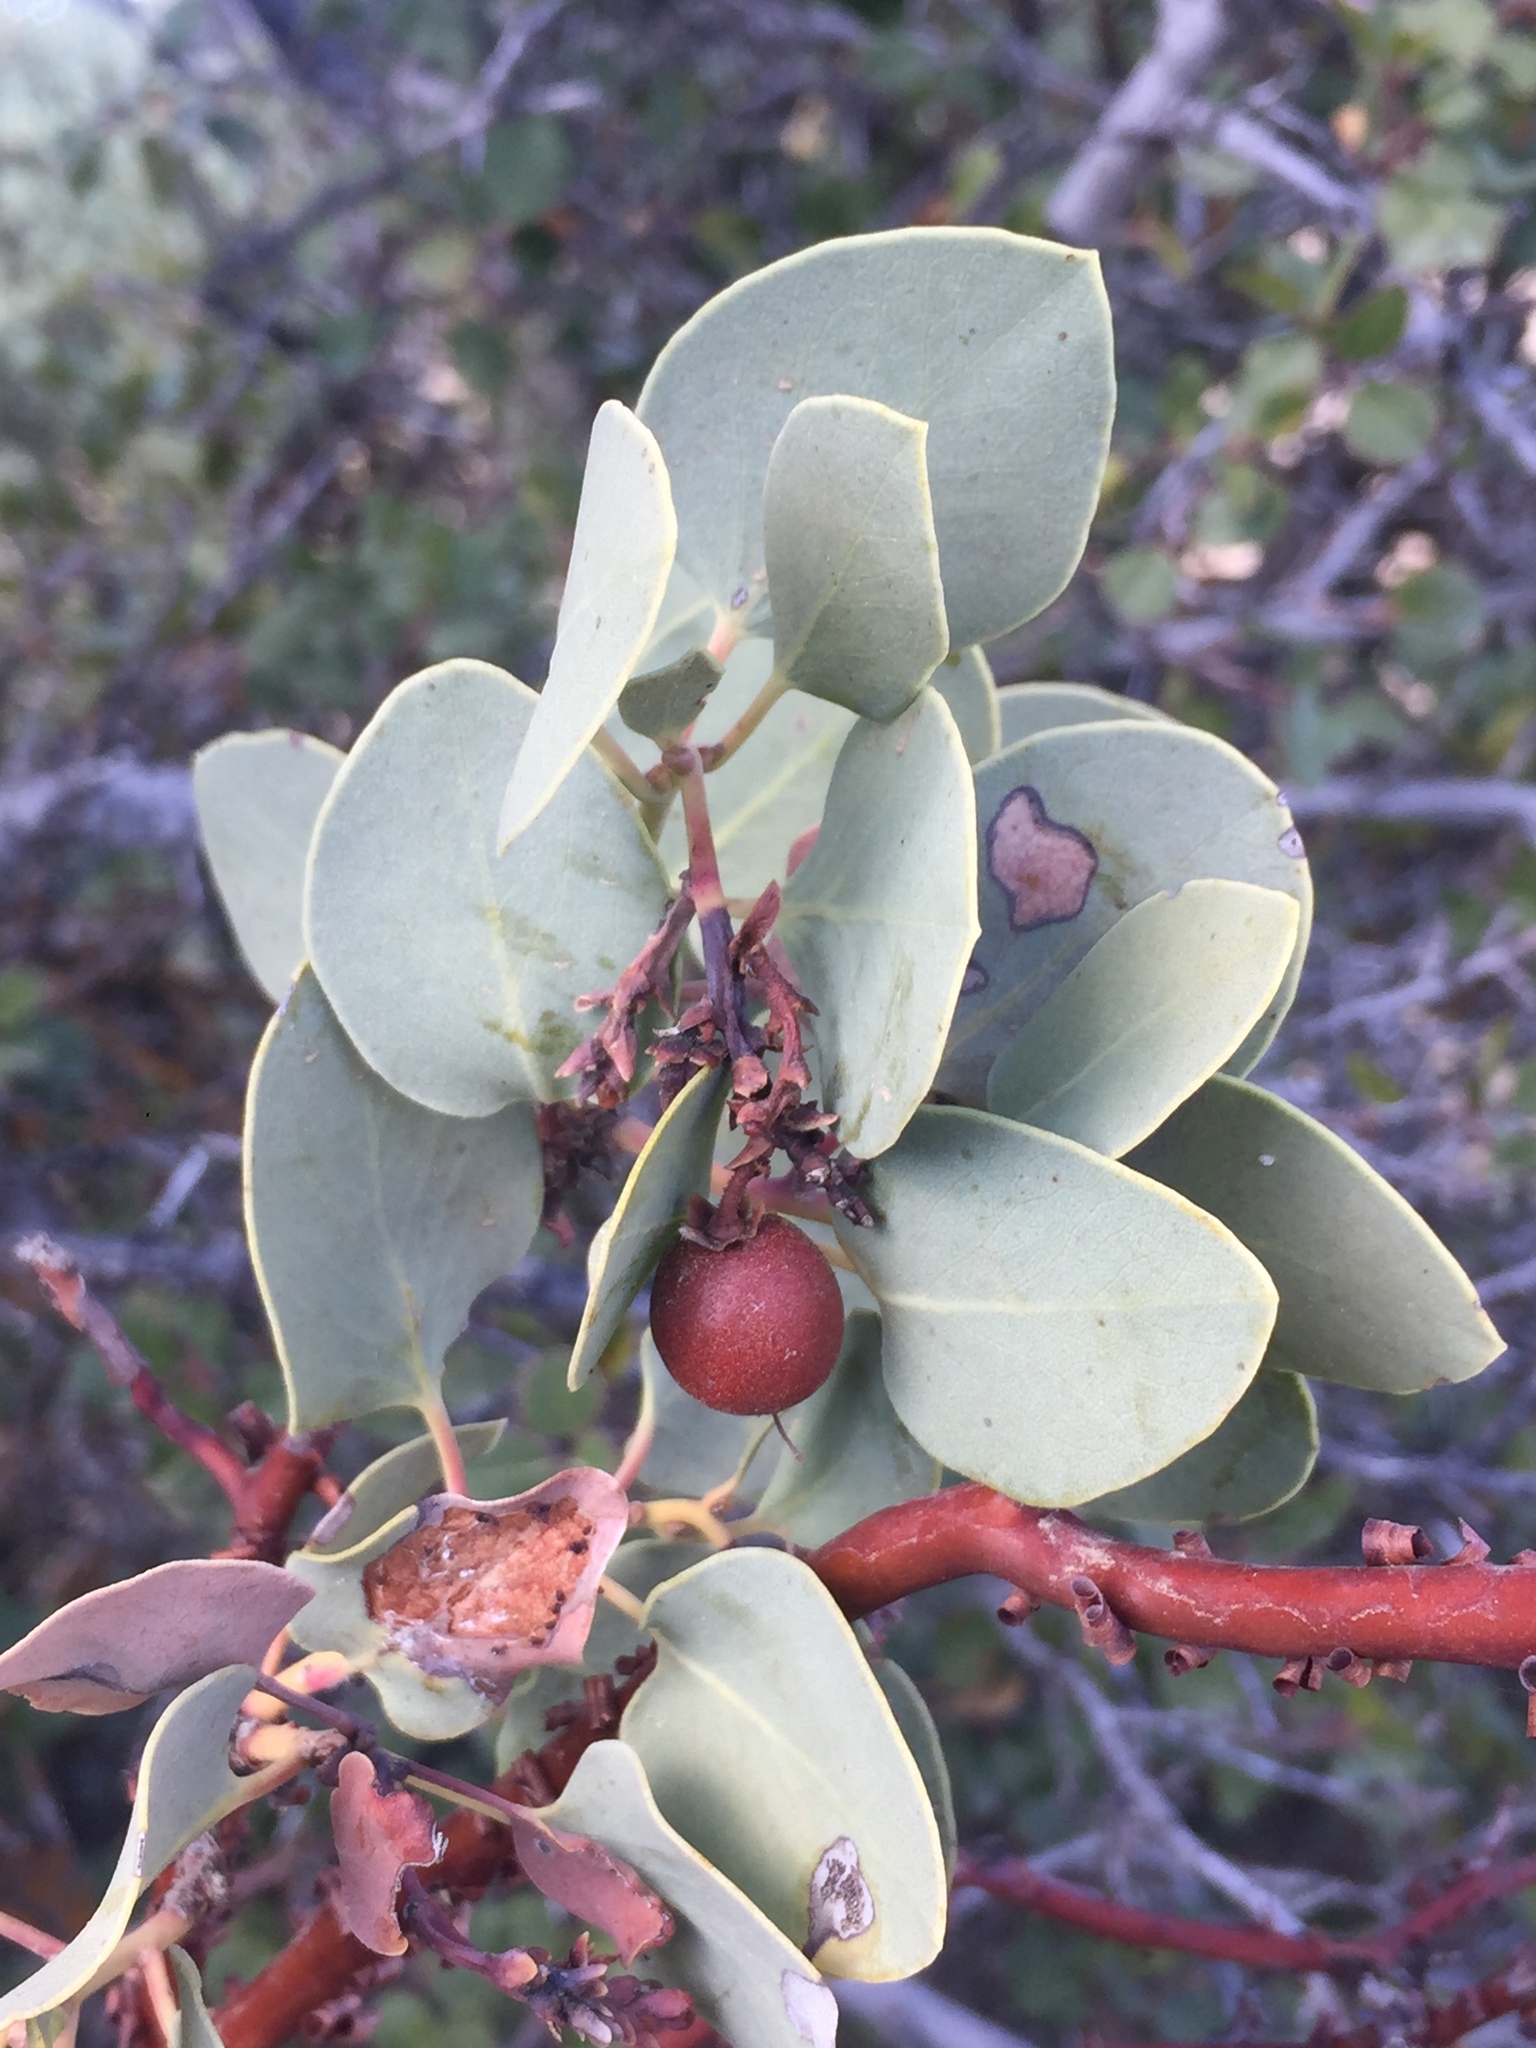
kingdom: Plantae
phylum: Tracheophyta
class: Magnoliopsida
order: Ericales
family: Ericaceae
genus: Arctostaphylos
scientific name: Arctostaphylos glauca
